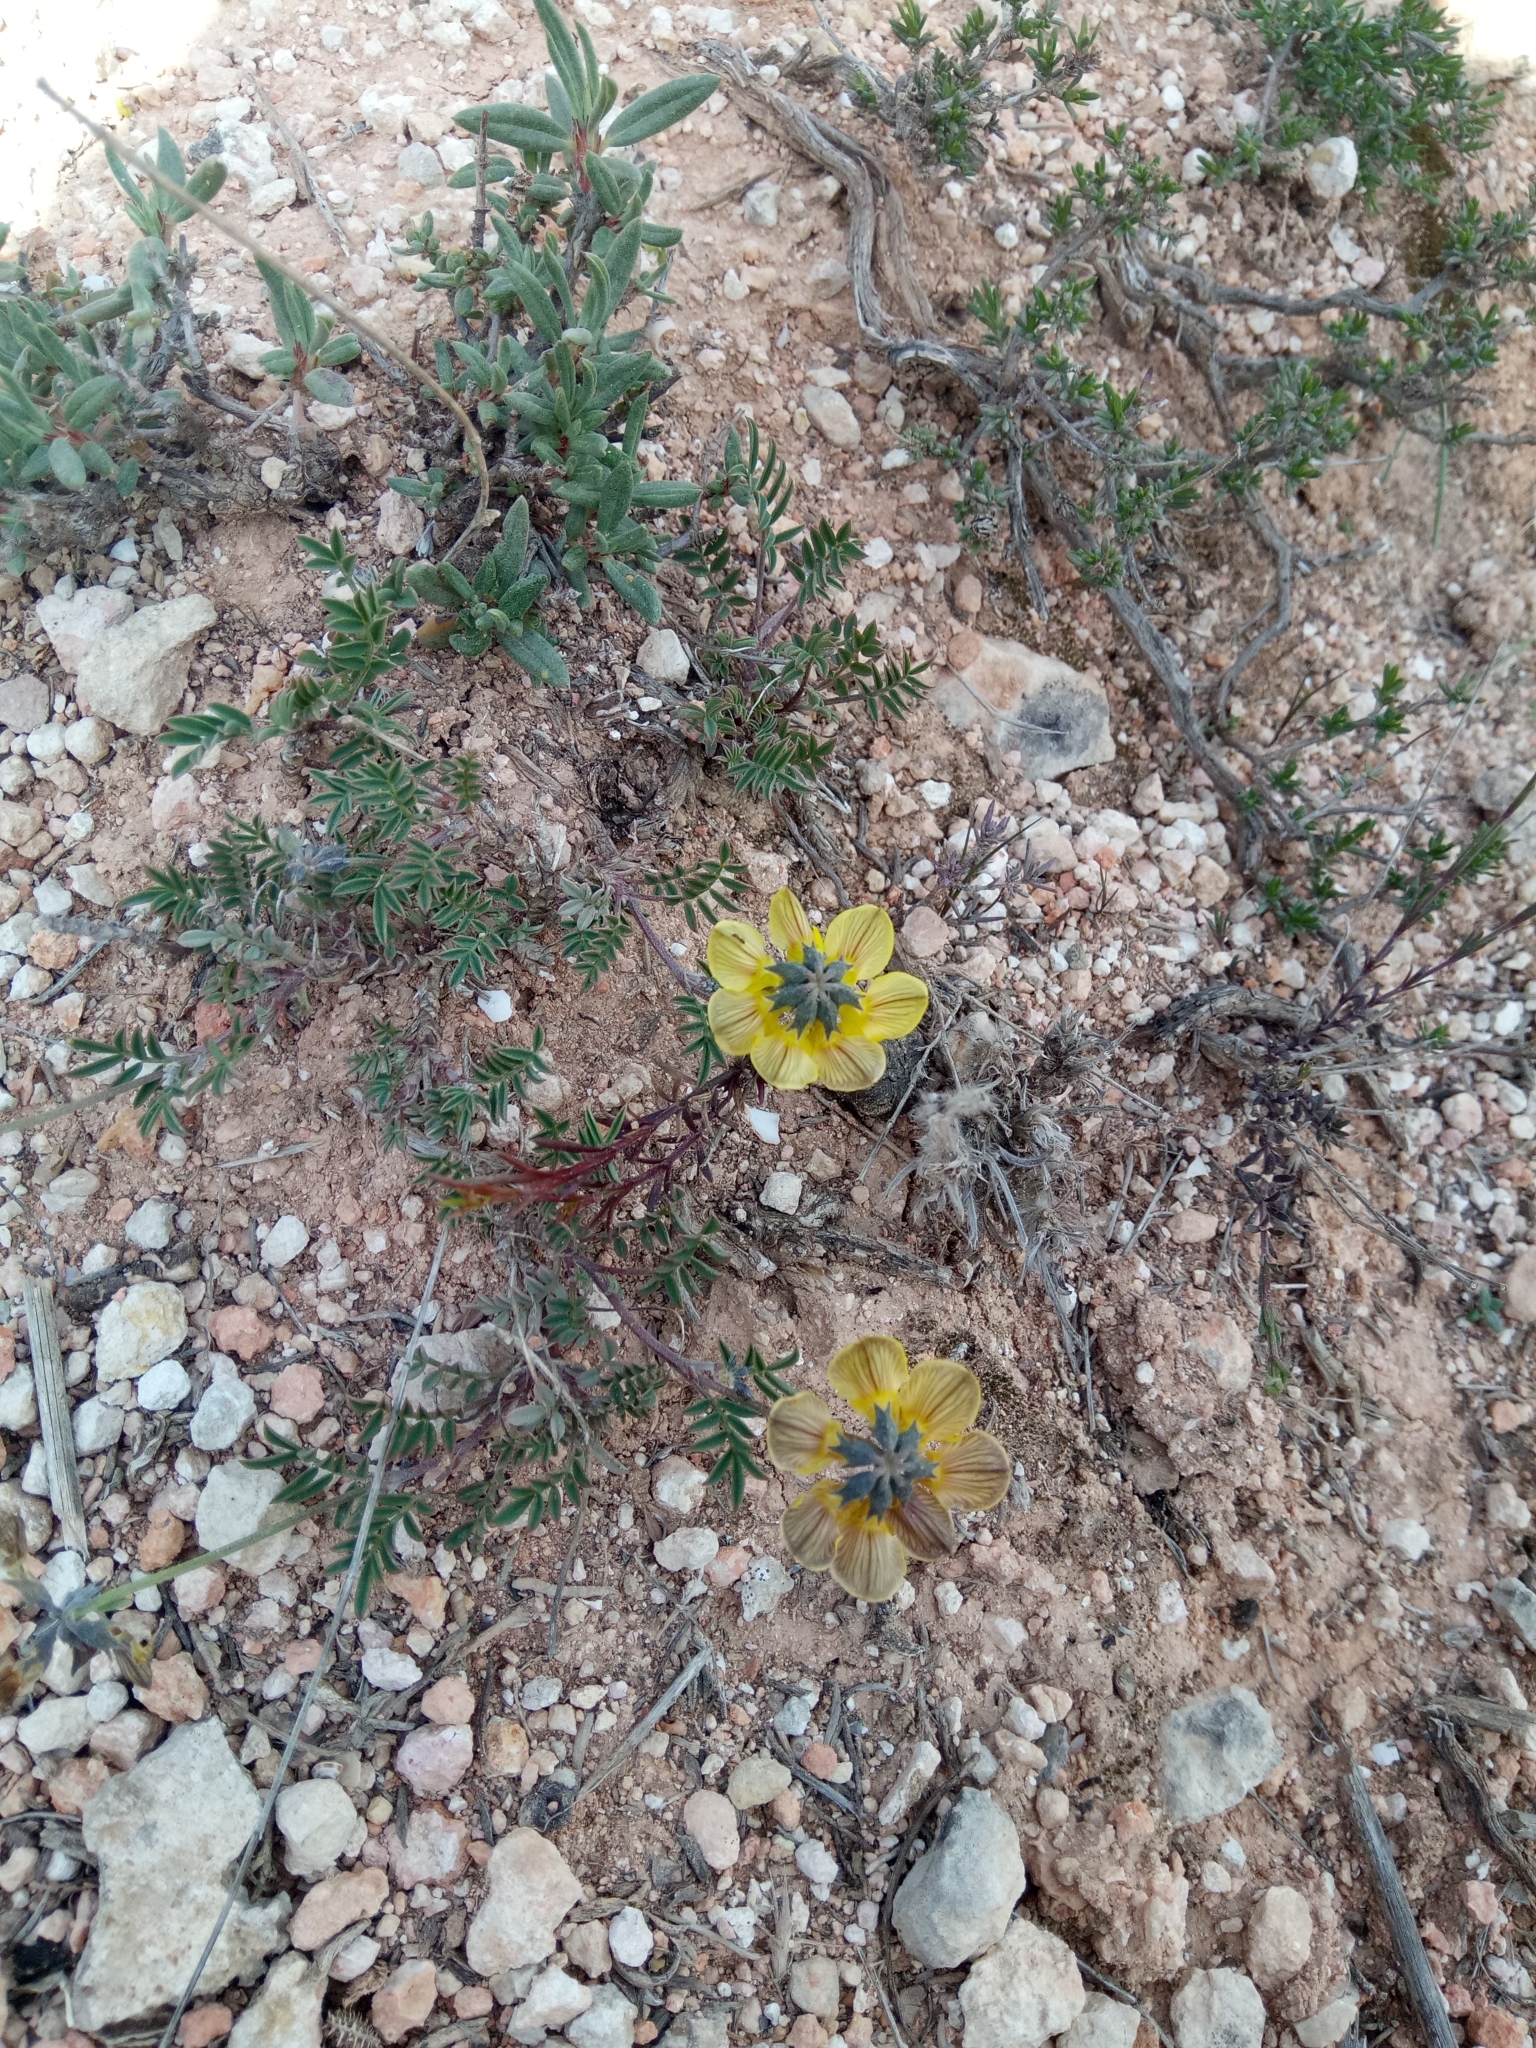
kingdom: Plantae
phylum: Tracheophyta
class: Magnoliopsida
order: Fabales
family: Fabaceae
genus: Hippocrepis
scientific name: Hippocrepis atlantica
